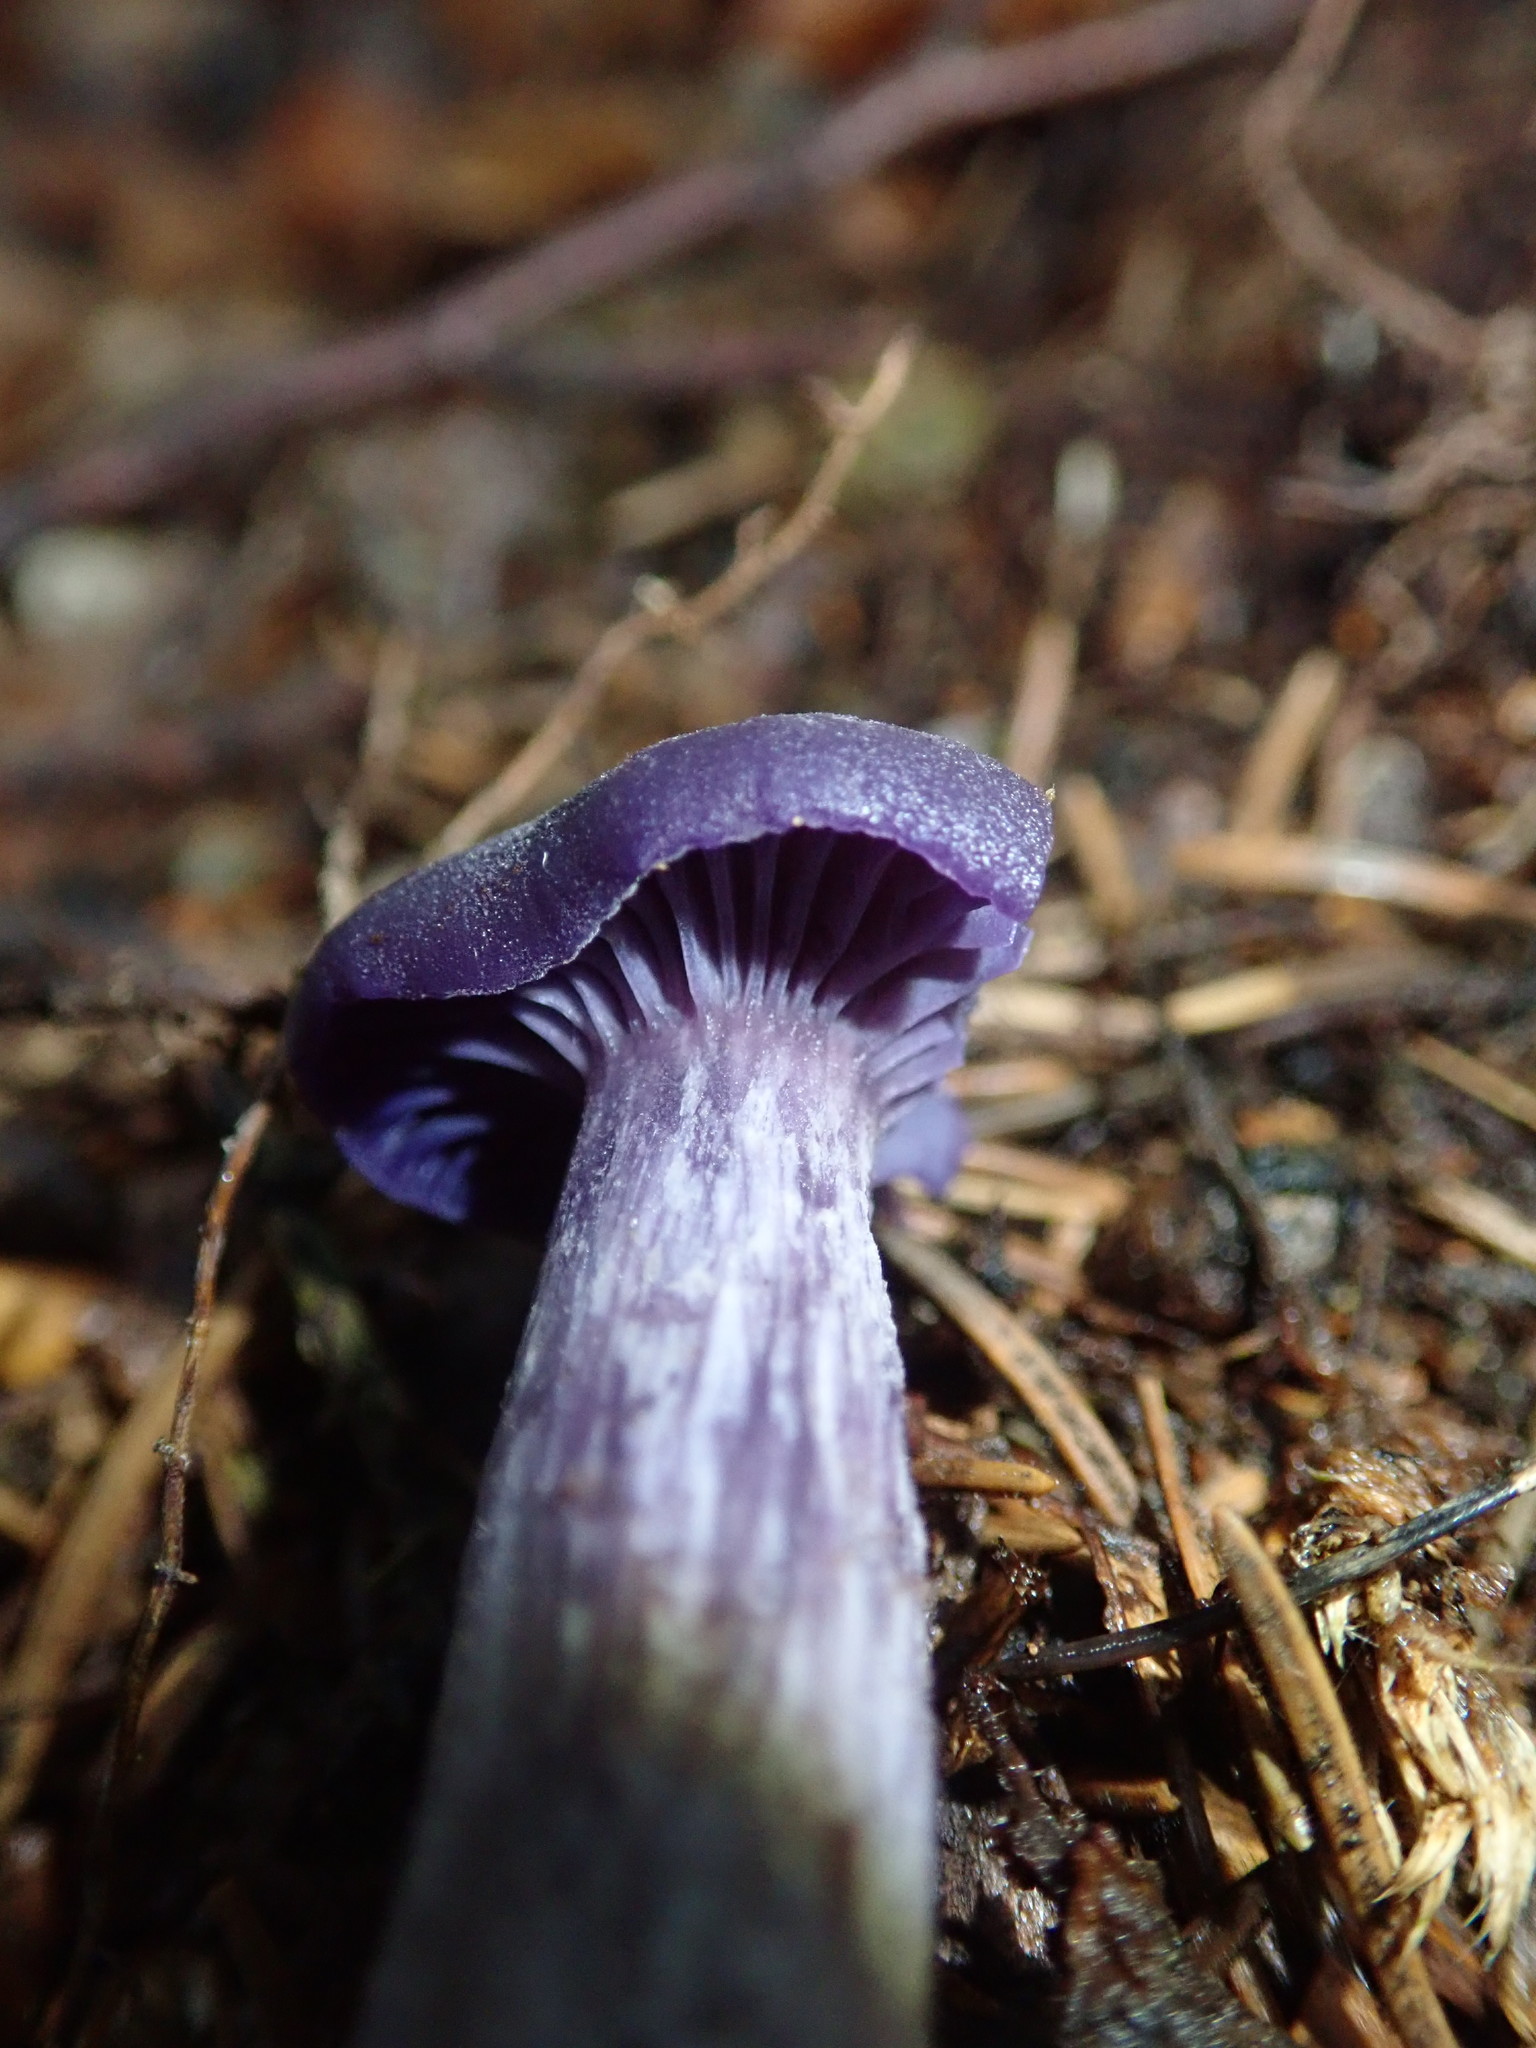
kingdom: Fungi
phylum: Basidiomycota
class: Agaricomycetes
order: Agaricales
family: Hydnangiaceae
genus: Laccaria
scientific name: Laccaria amethystina
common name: Amethyst deceiver
